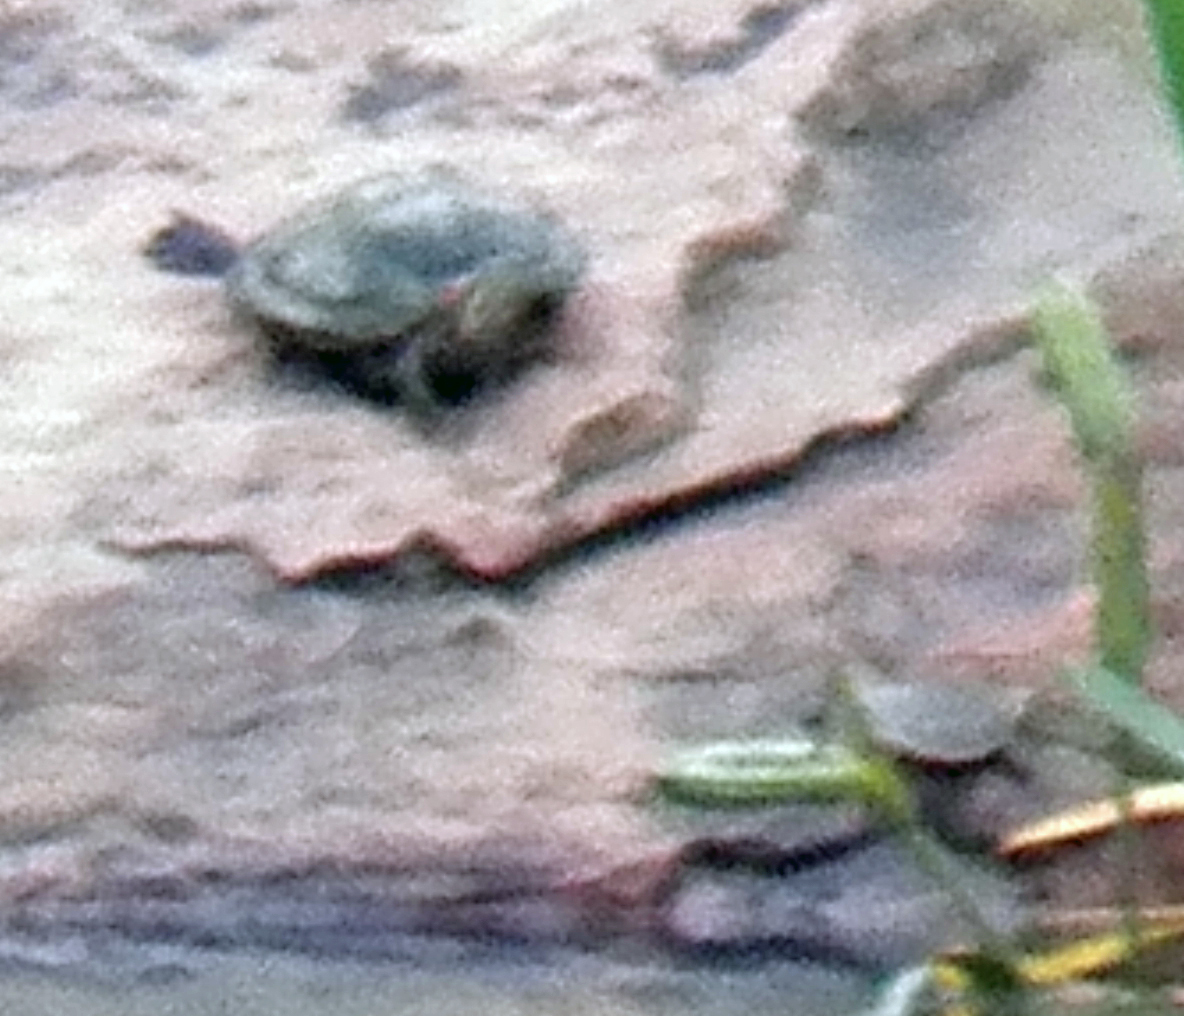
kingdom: Animalia
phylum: Chordata
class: Testudines
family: Emydidae
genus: Trachemys
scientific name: Trachemys scripta
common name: Slider
